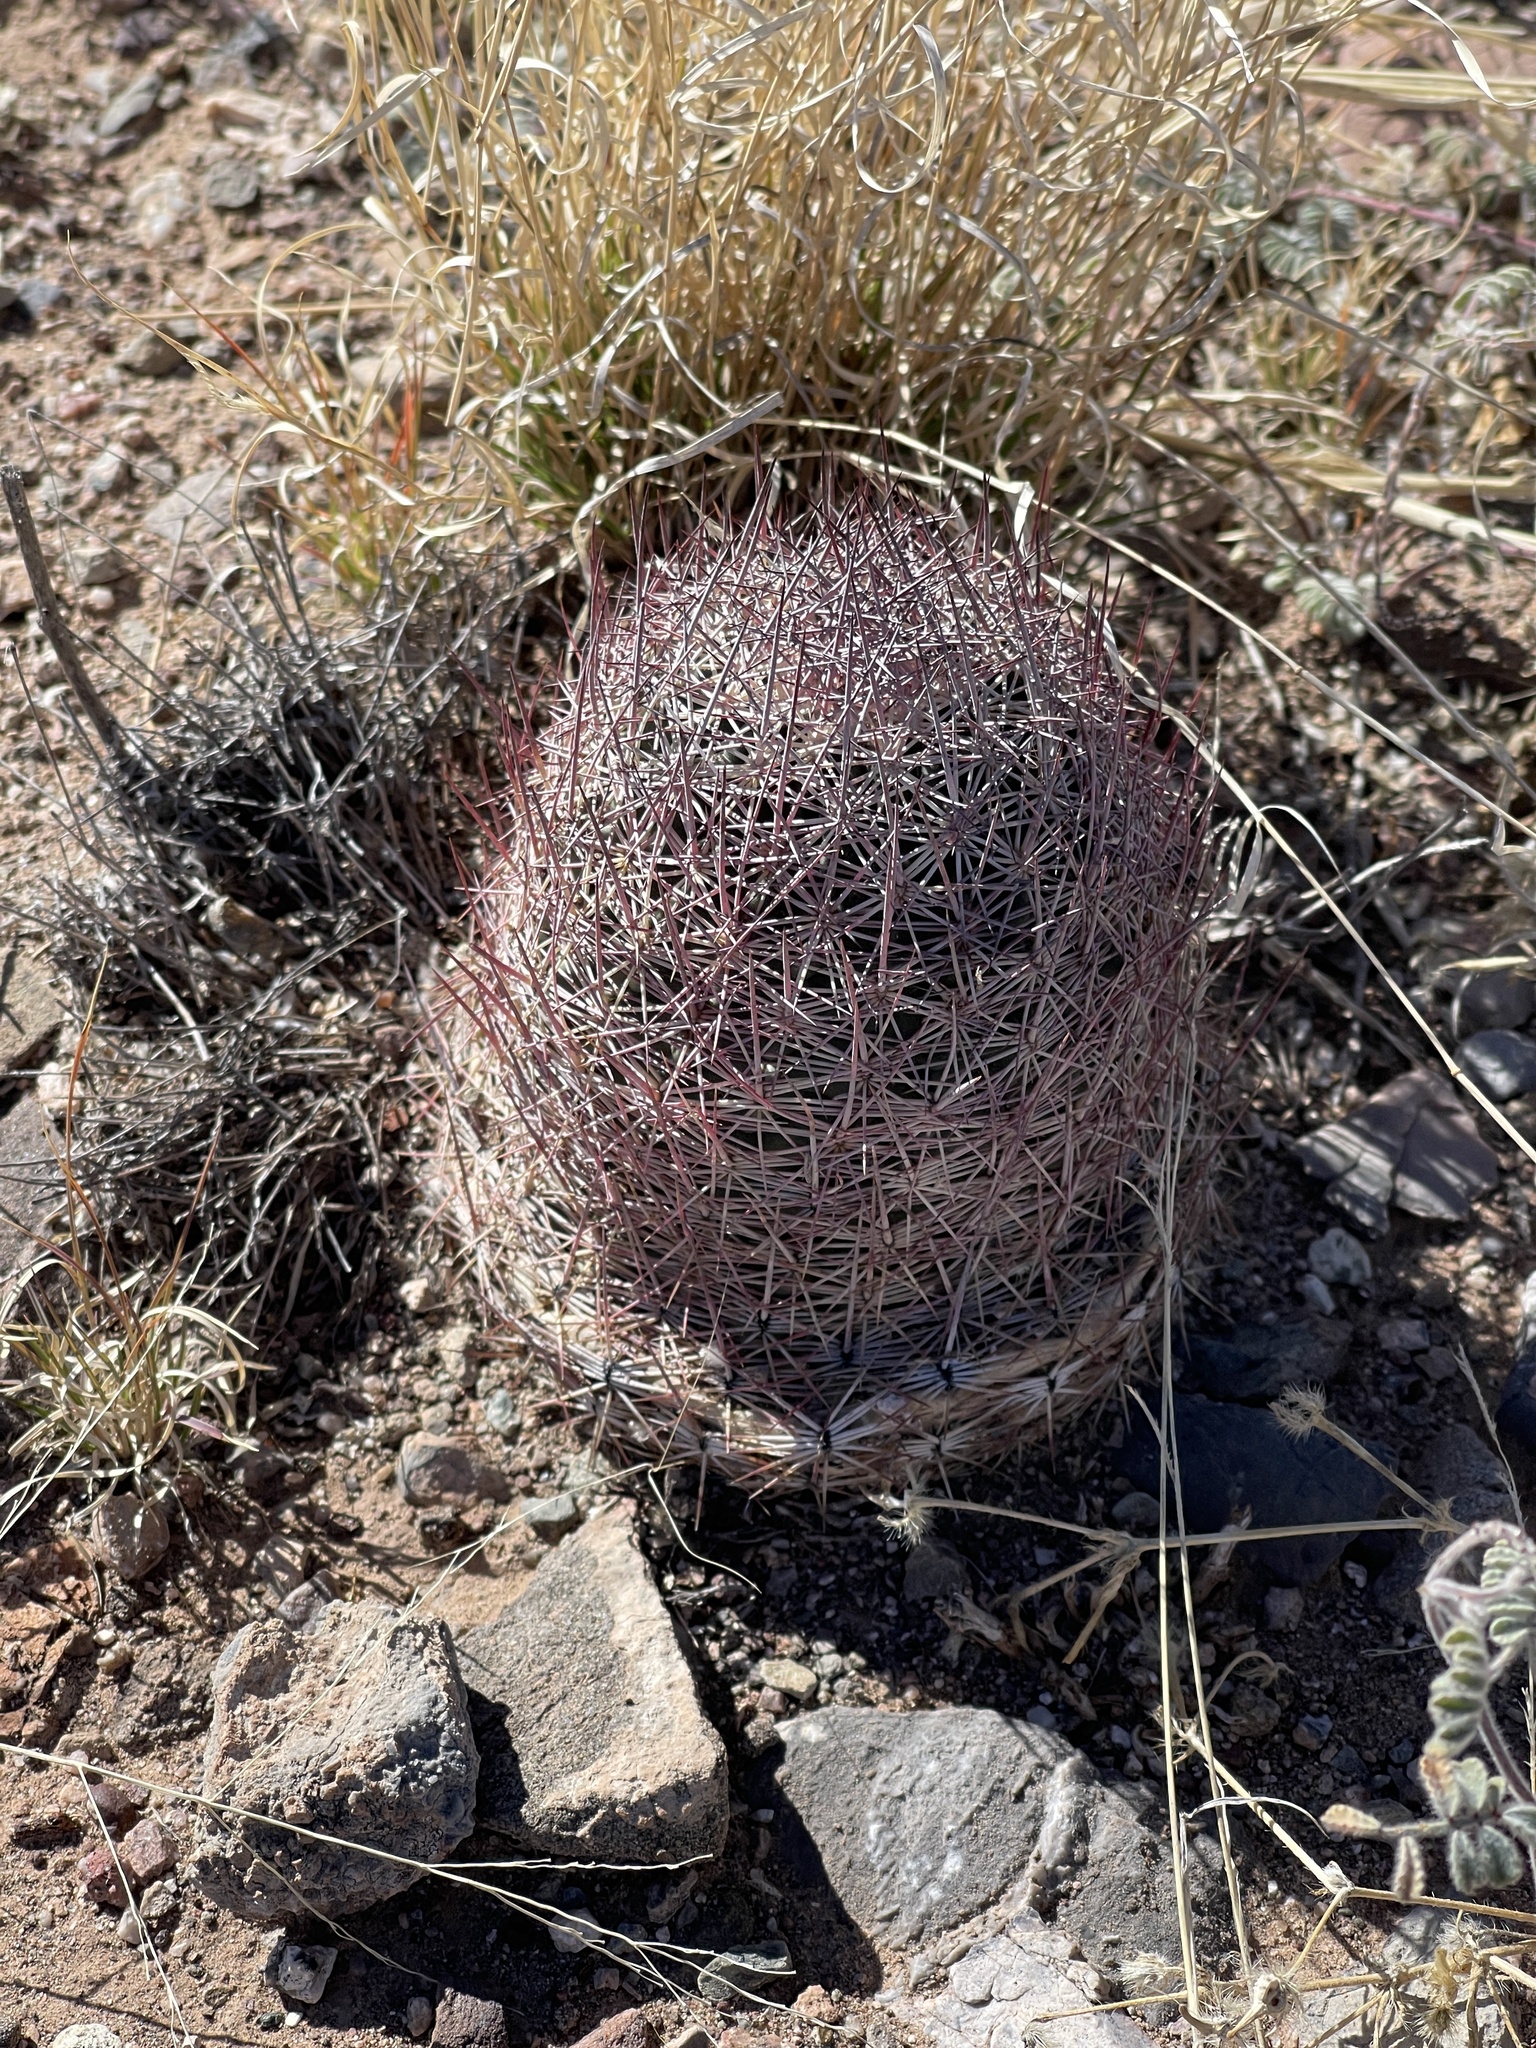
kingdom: Plantae
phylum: Tracheophyta
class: Magnoliopsida
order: Caryophyllales
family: Cactaceae
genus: Sclerocactus
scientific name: Sclerocactus johnsonii
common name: Eight-spine fishhook cactus
